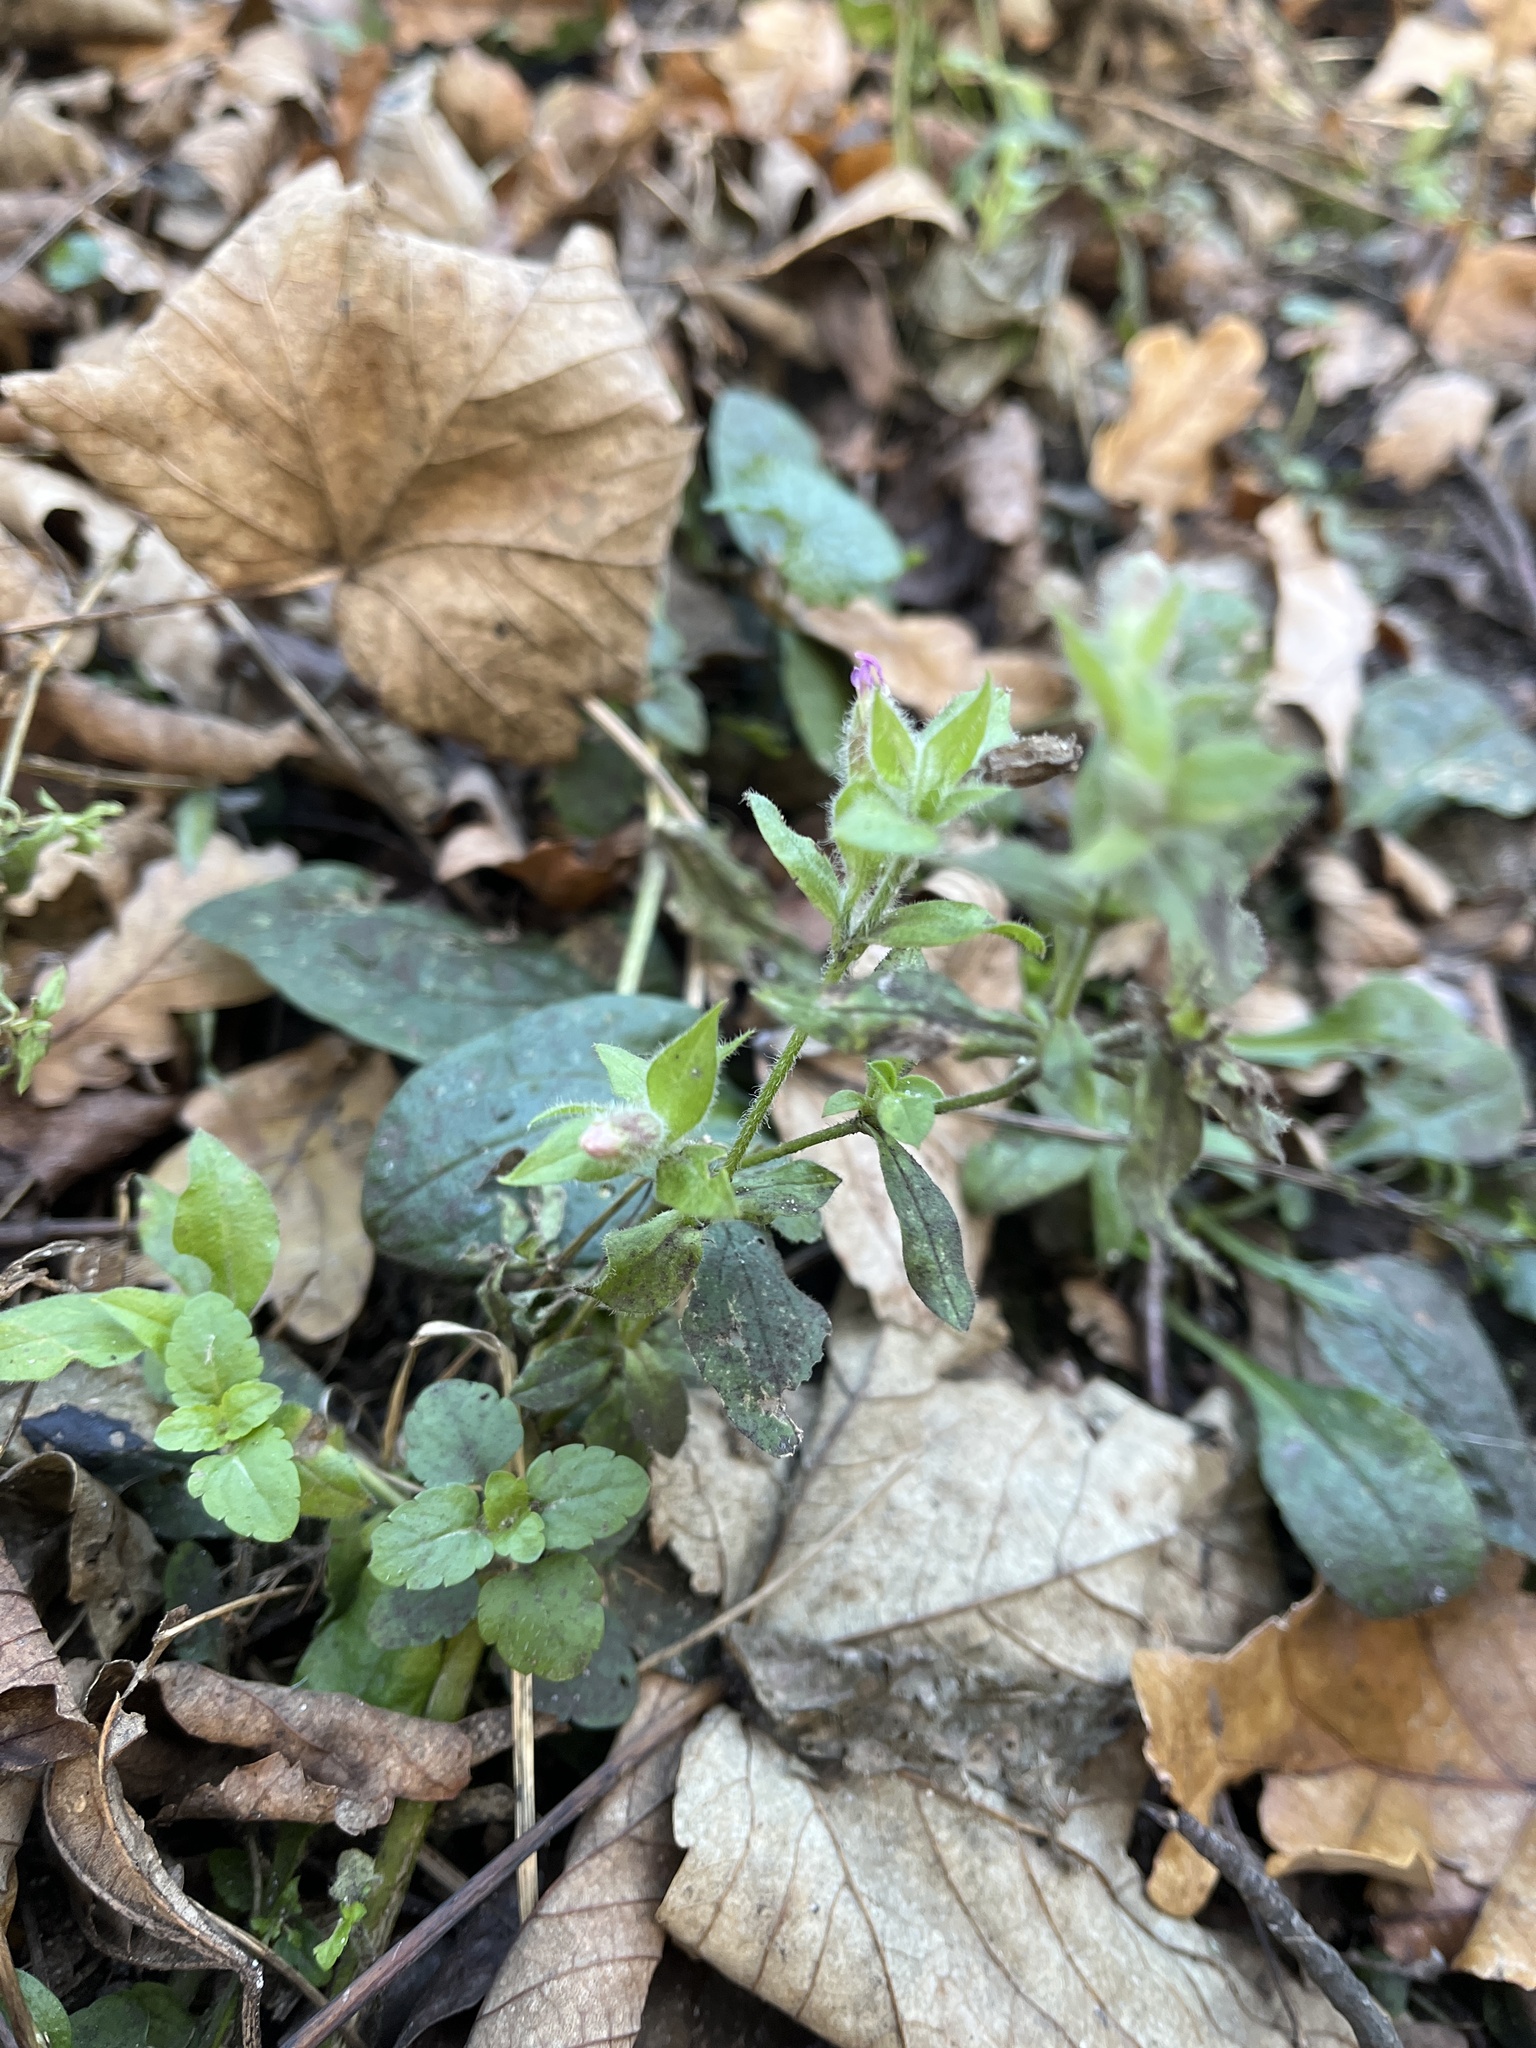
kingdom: Plantae
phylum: Tracheophyta
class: Magnoliopsida
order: Caryophyllales
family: Caryophyllaceae
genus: Silene
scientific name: Silene dioica
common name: Red campion
